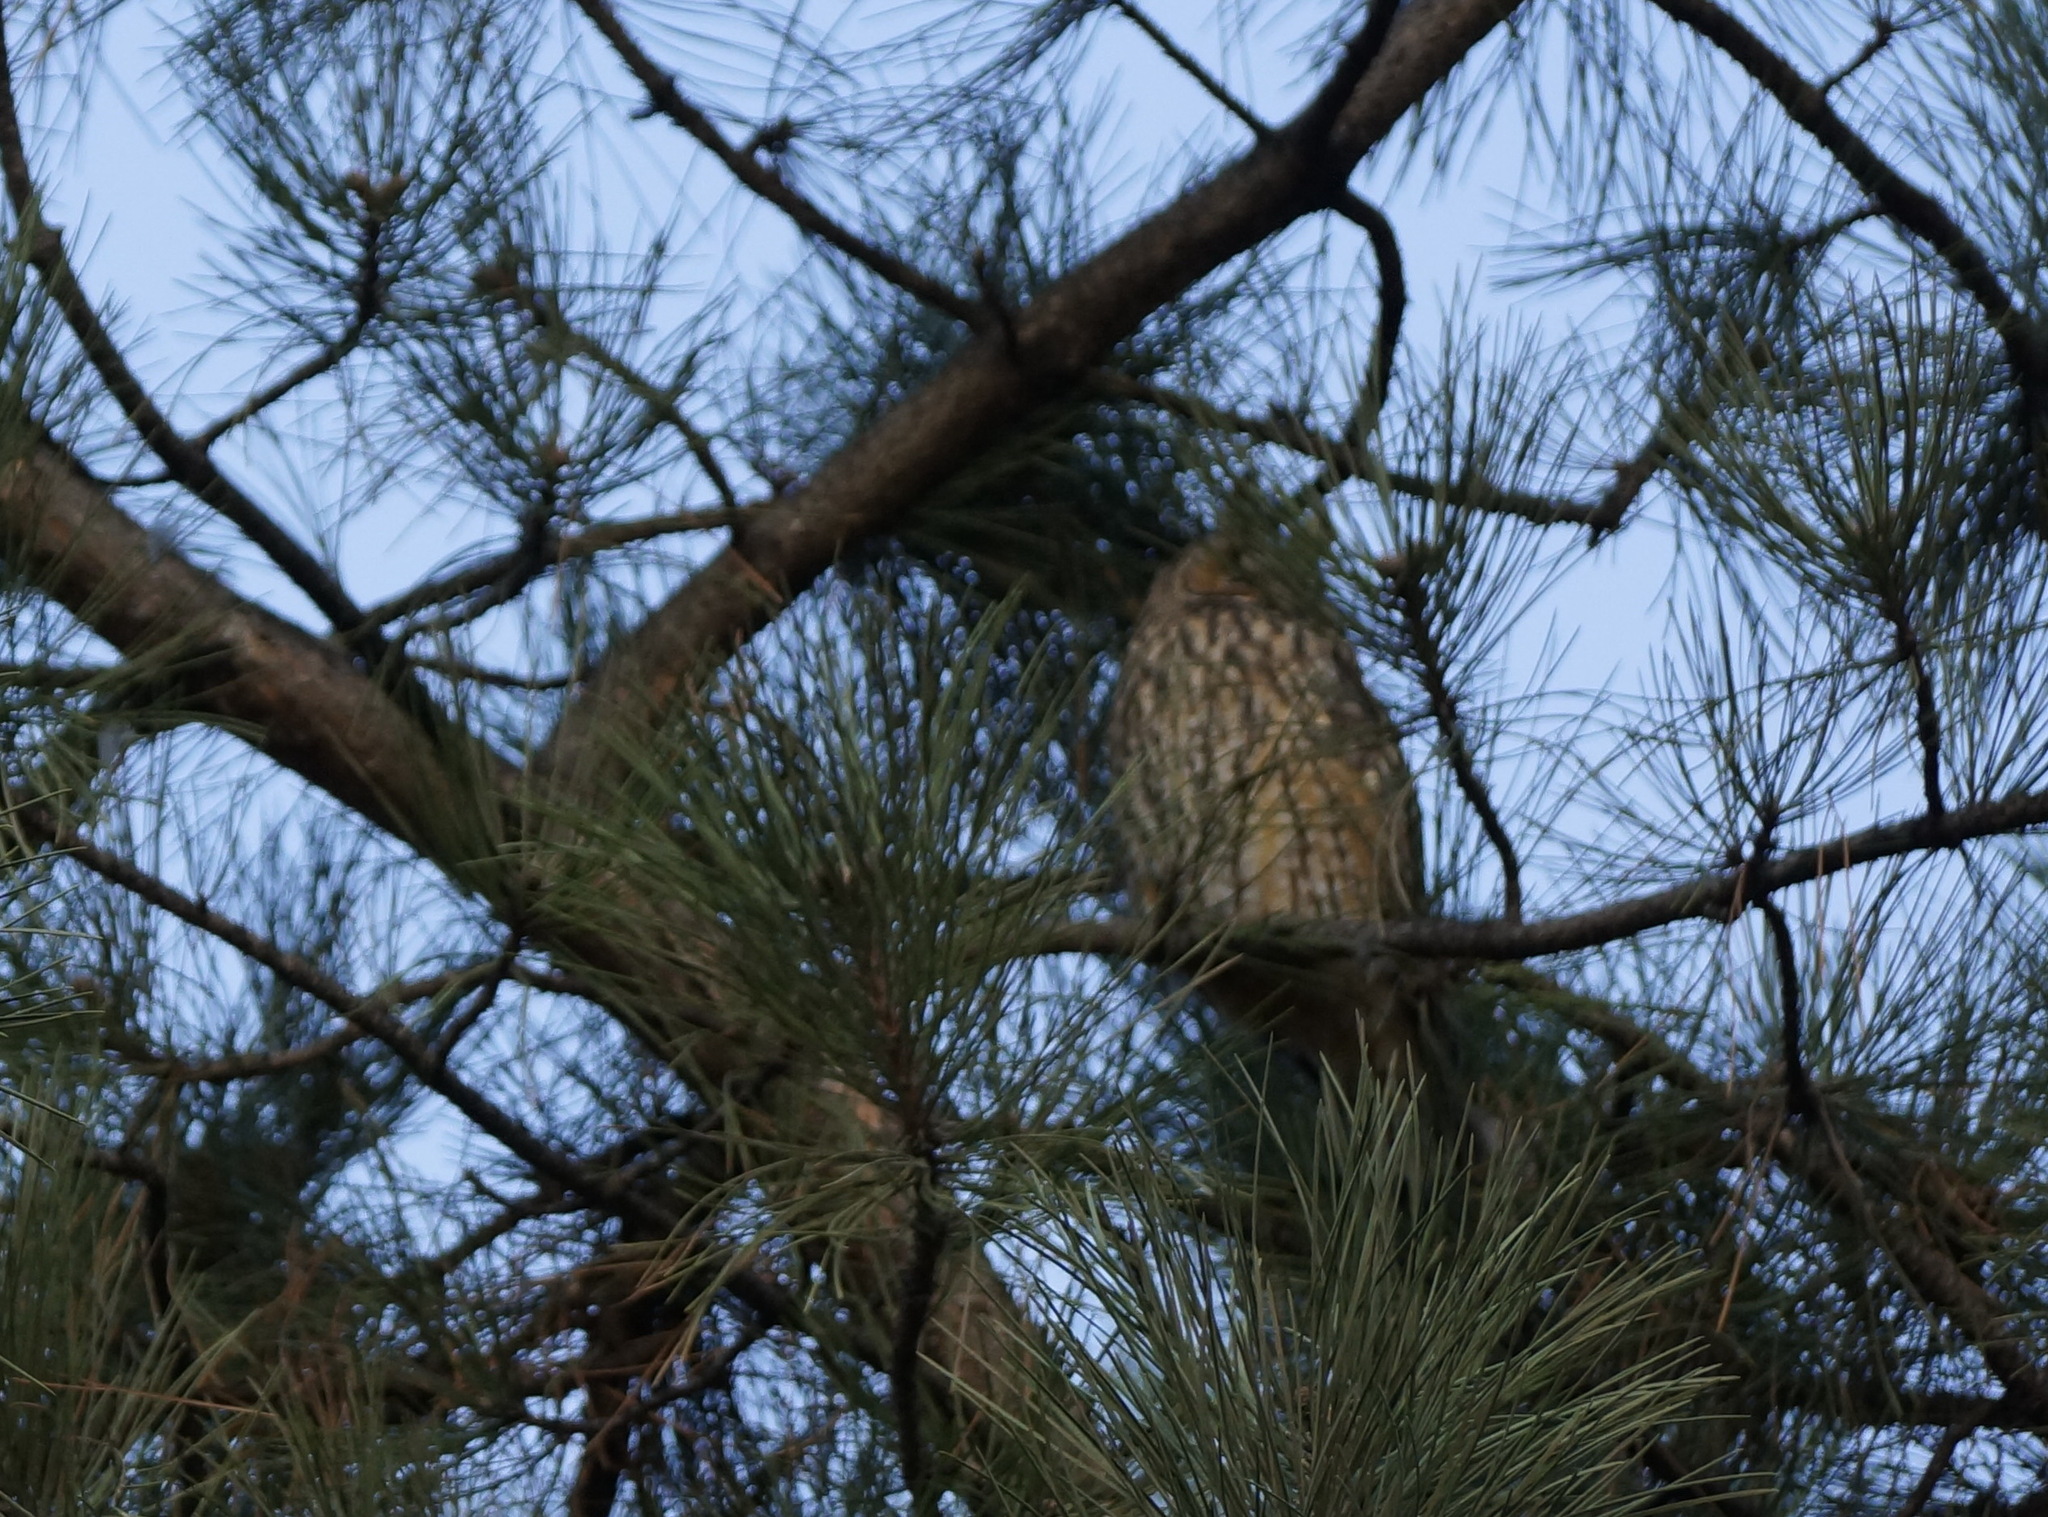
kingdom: Animalia
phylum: Chordata
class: Aves
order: Strigiformes
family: Strigidae
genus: Asio
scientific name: Asio otus
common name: Long-eared owl
